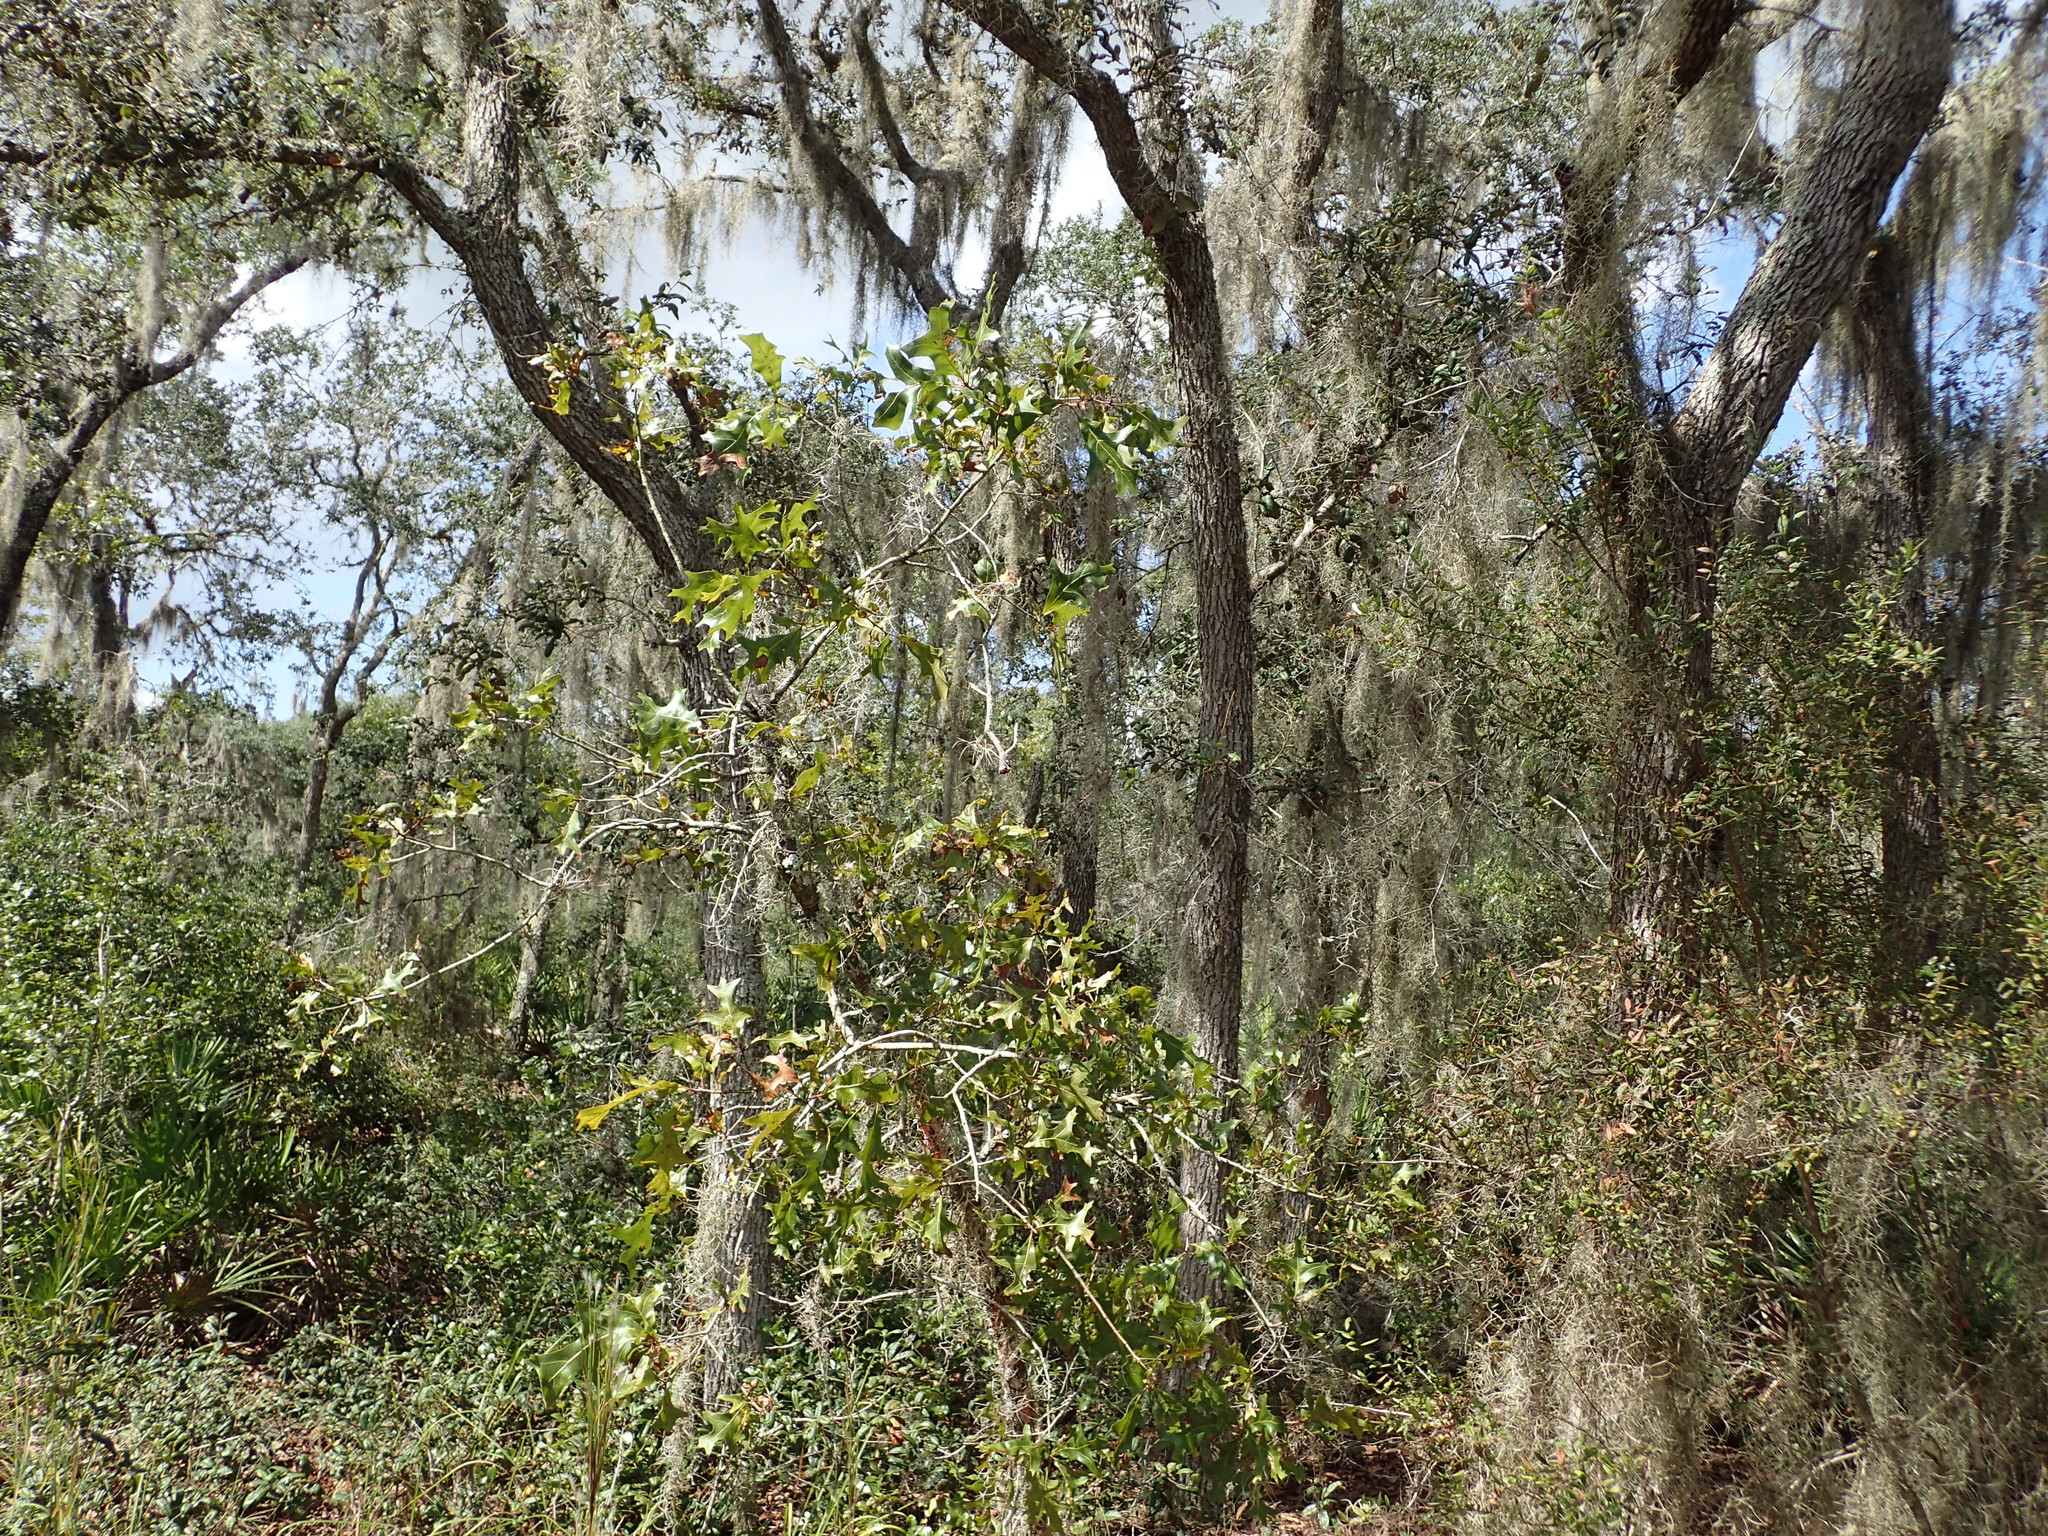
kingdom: Plantae
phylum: Tracheophyta
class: Magnoliopsida
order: Fagales
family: Fagaceae
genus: Quercus
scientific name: Quercus laevis
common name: Turkey oak
